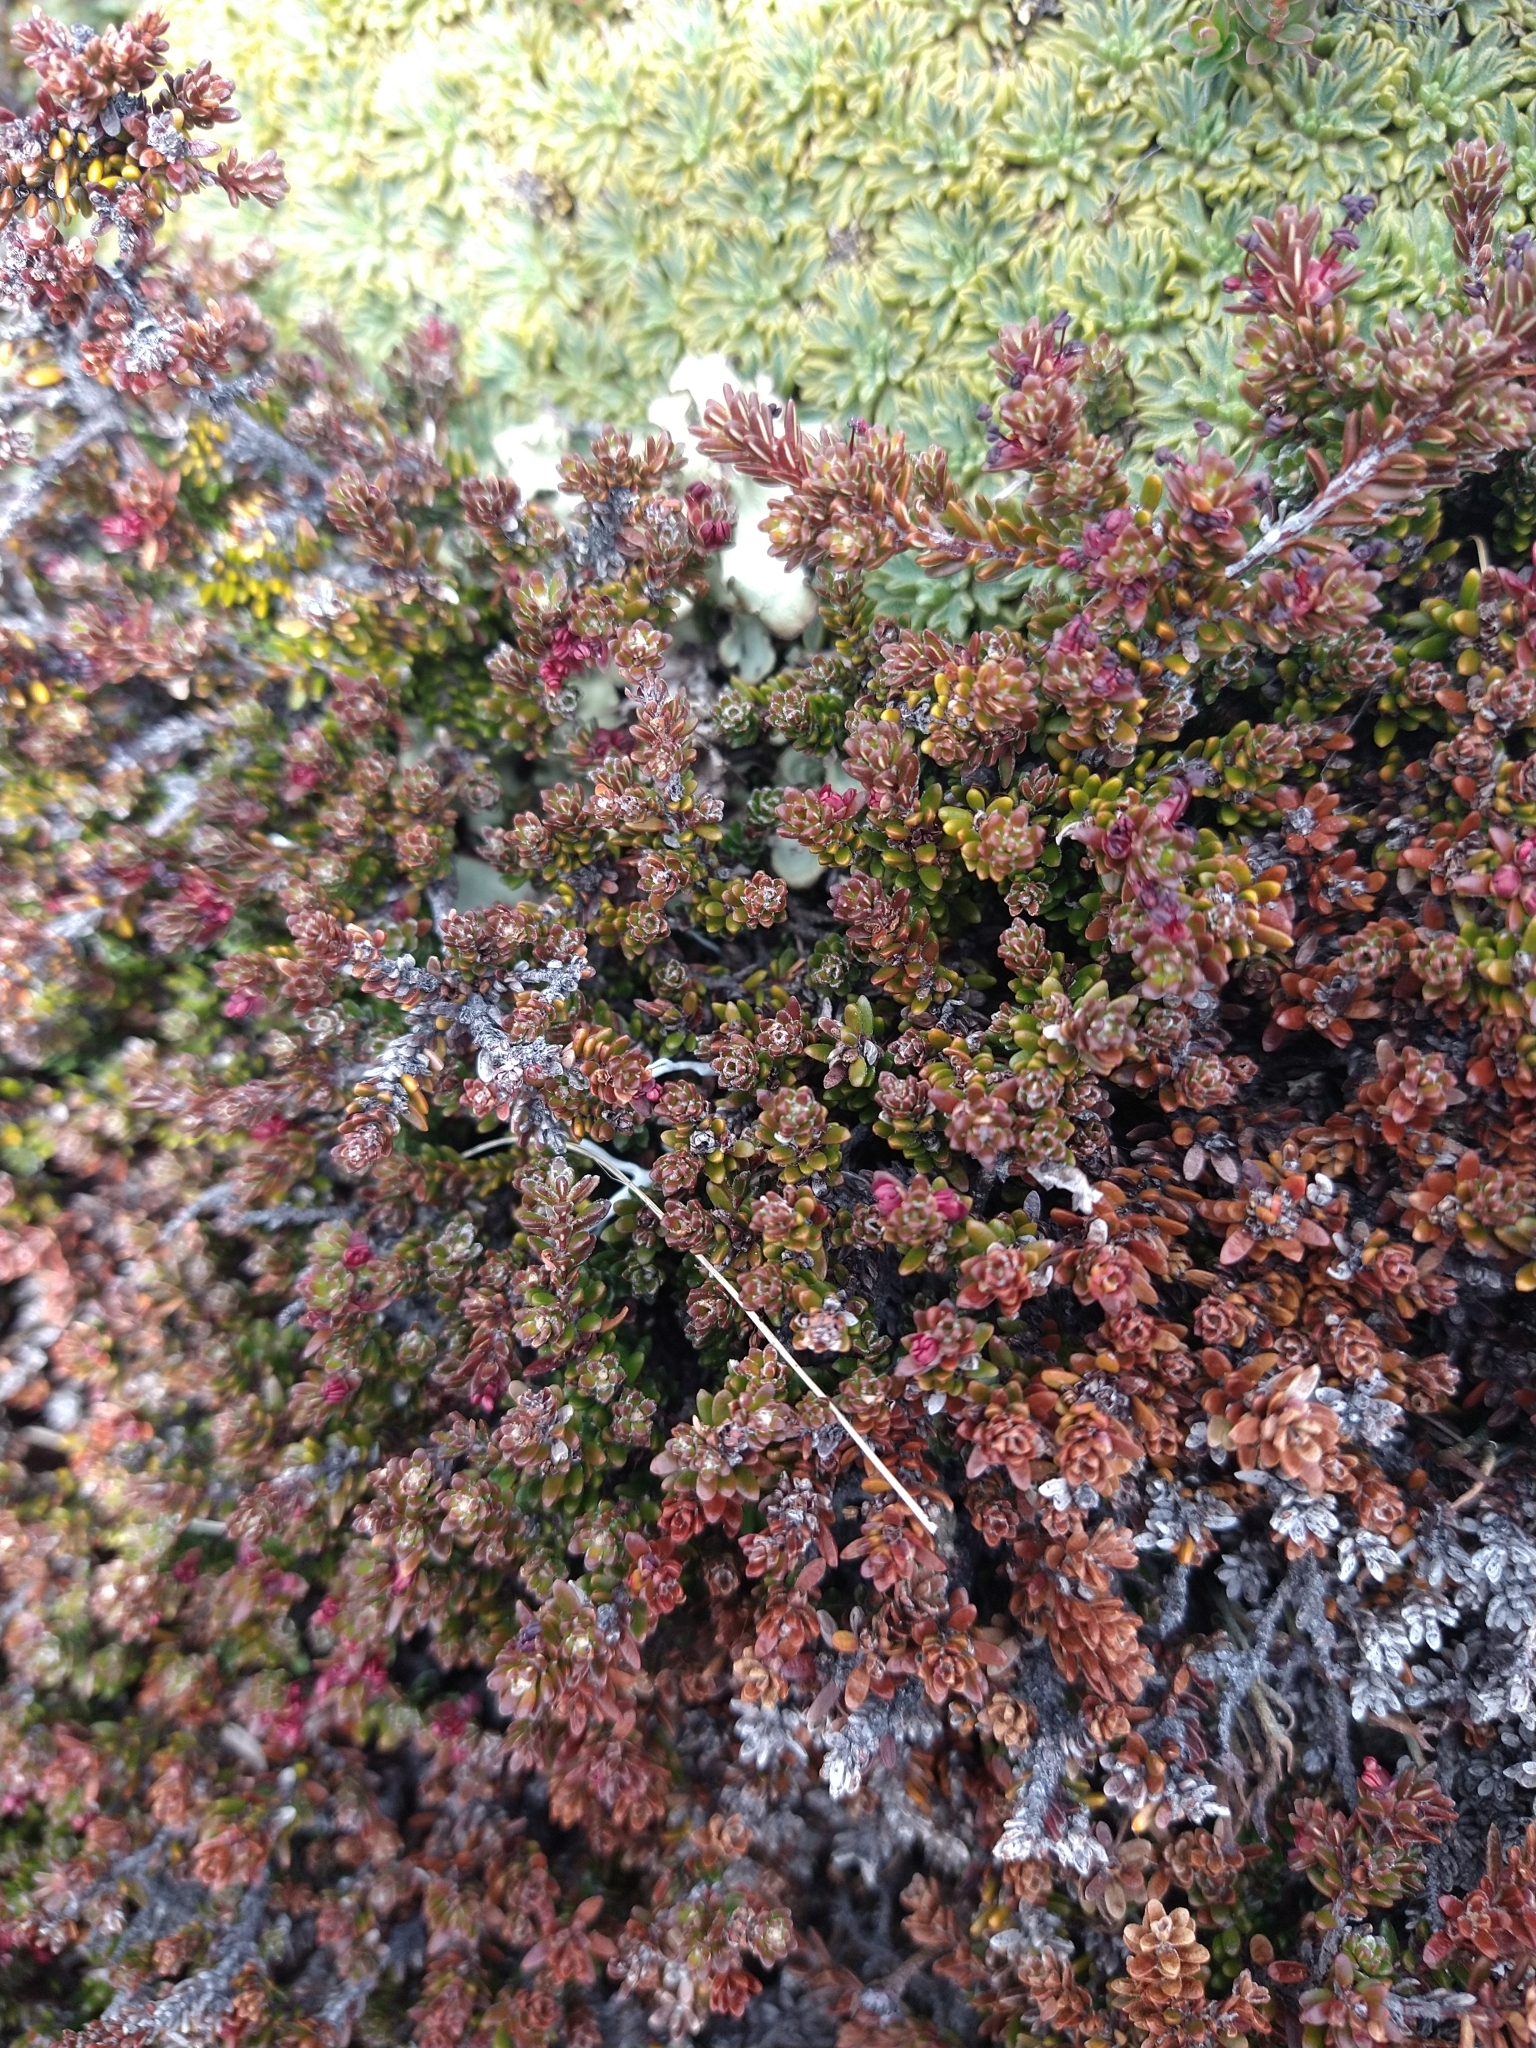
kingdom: Plantae
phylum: Tracheophyta
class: Magnoliopsida
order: Ericales
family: Ericaceae
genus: Empetrum
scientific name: Empetrum rubrum
